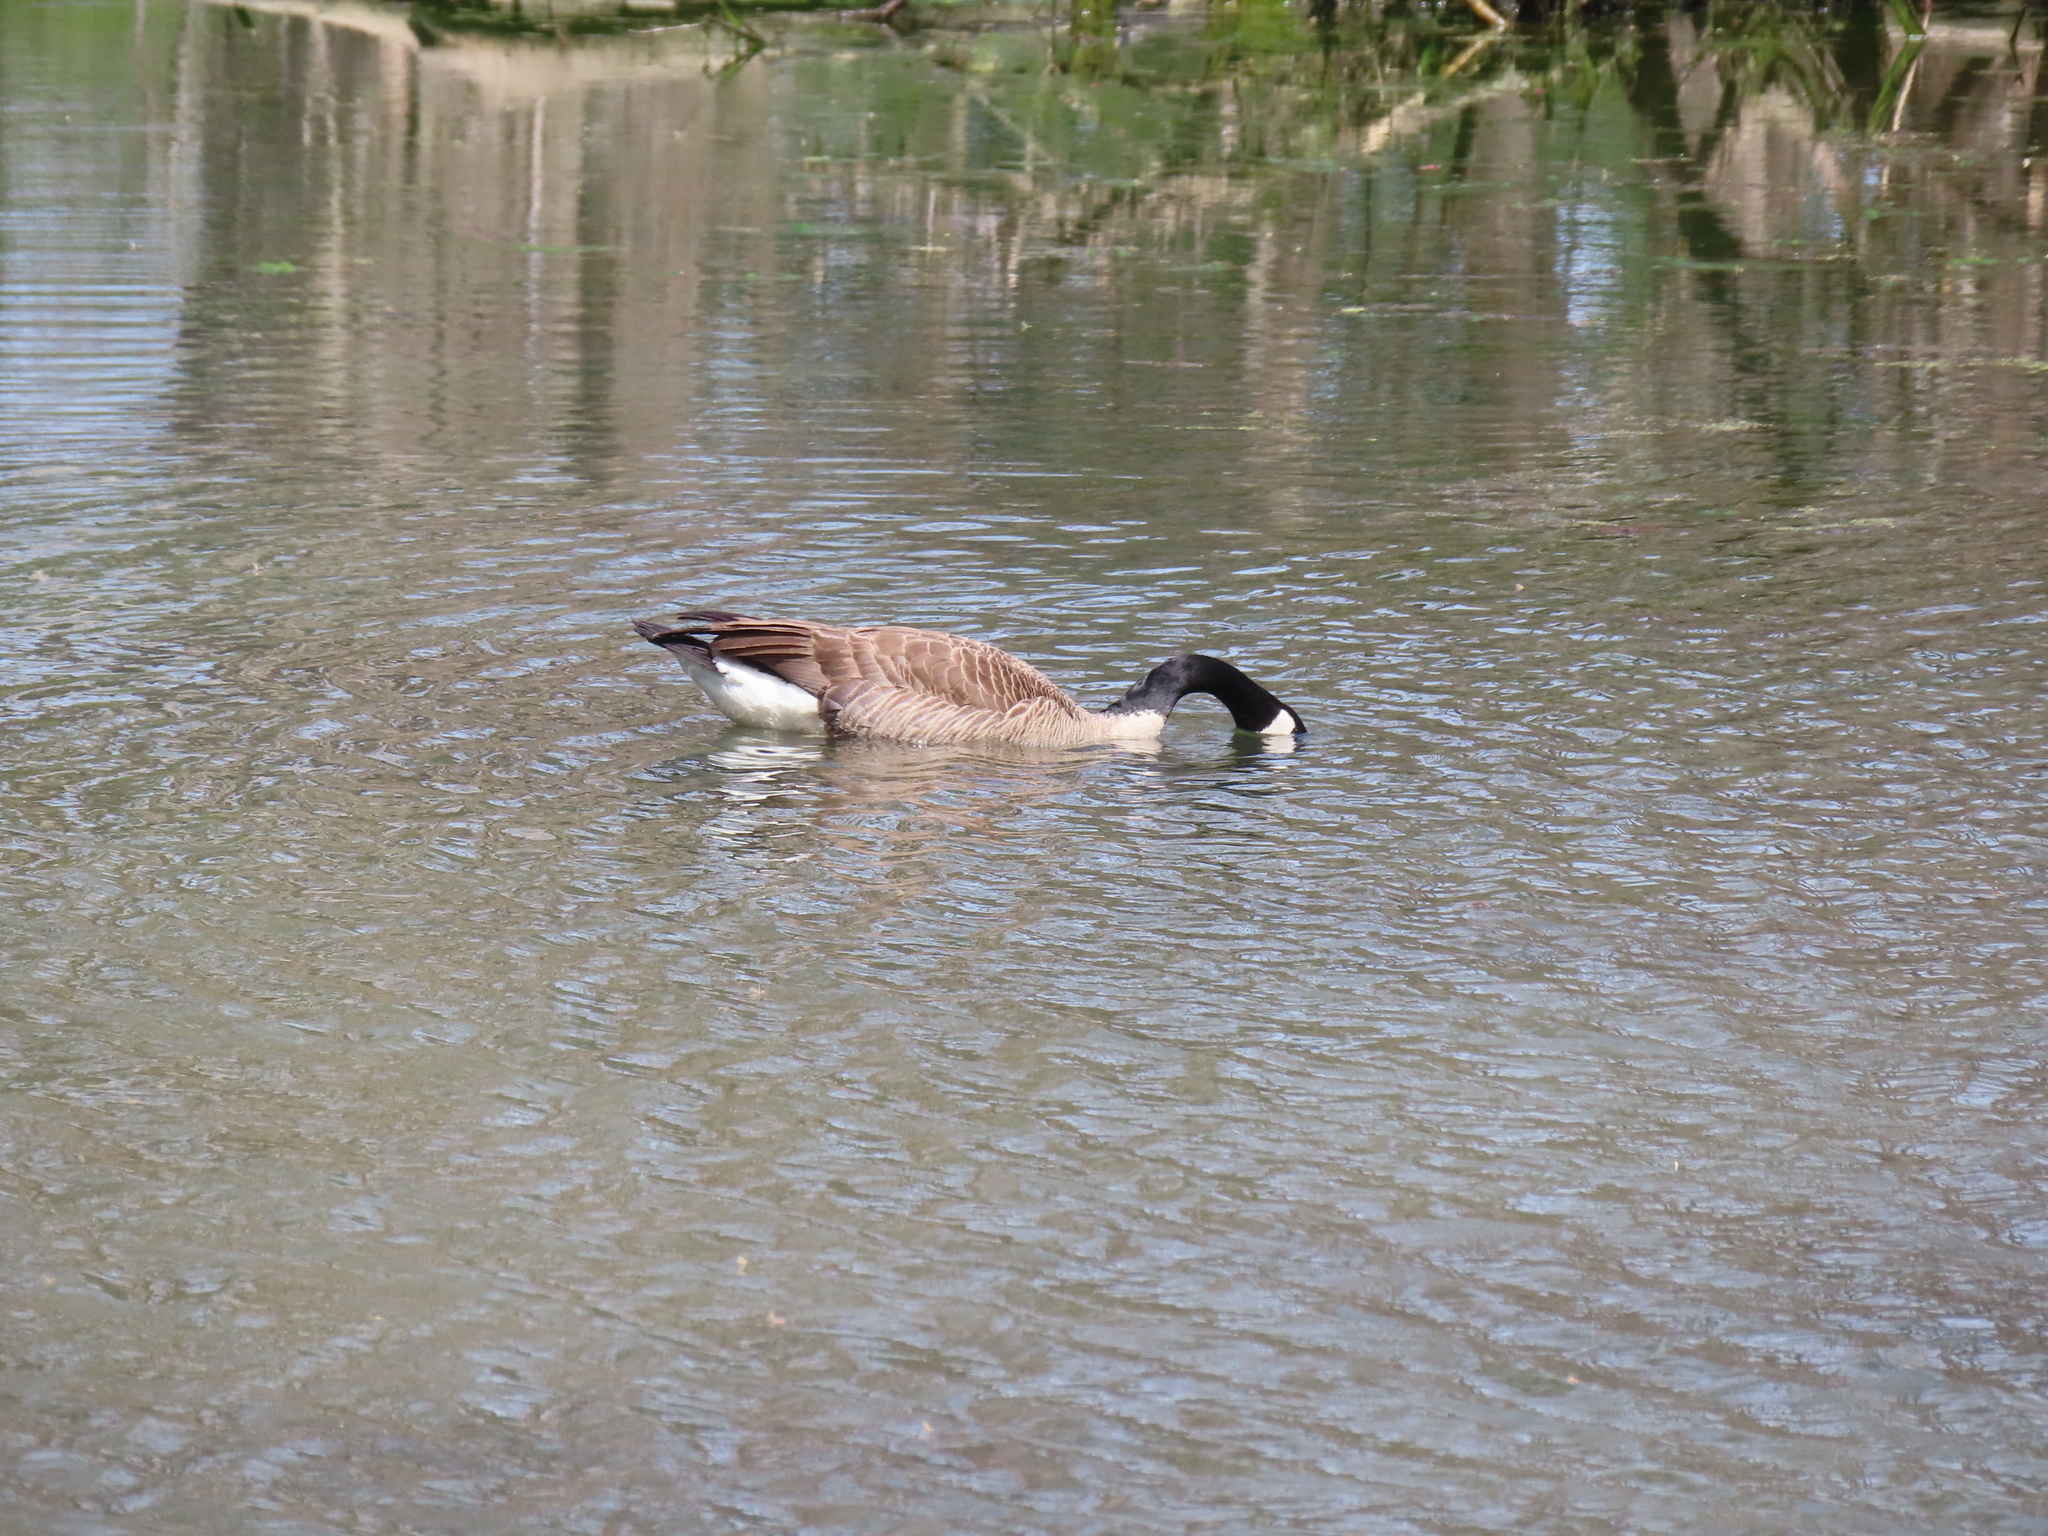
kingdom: Animalia
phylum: Chordata
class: Aves
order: Anseriformes
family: Anatidae
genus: Branta
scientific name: Branta canadensis
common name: Canada goose
